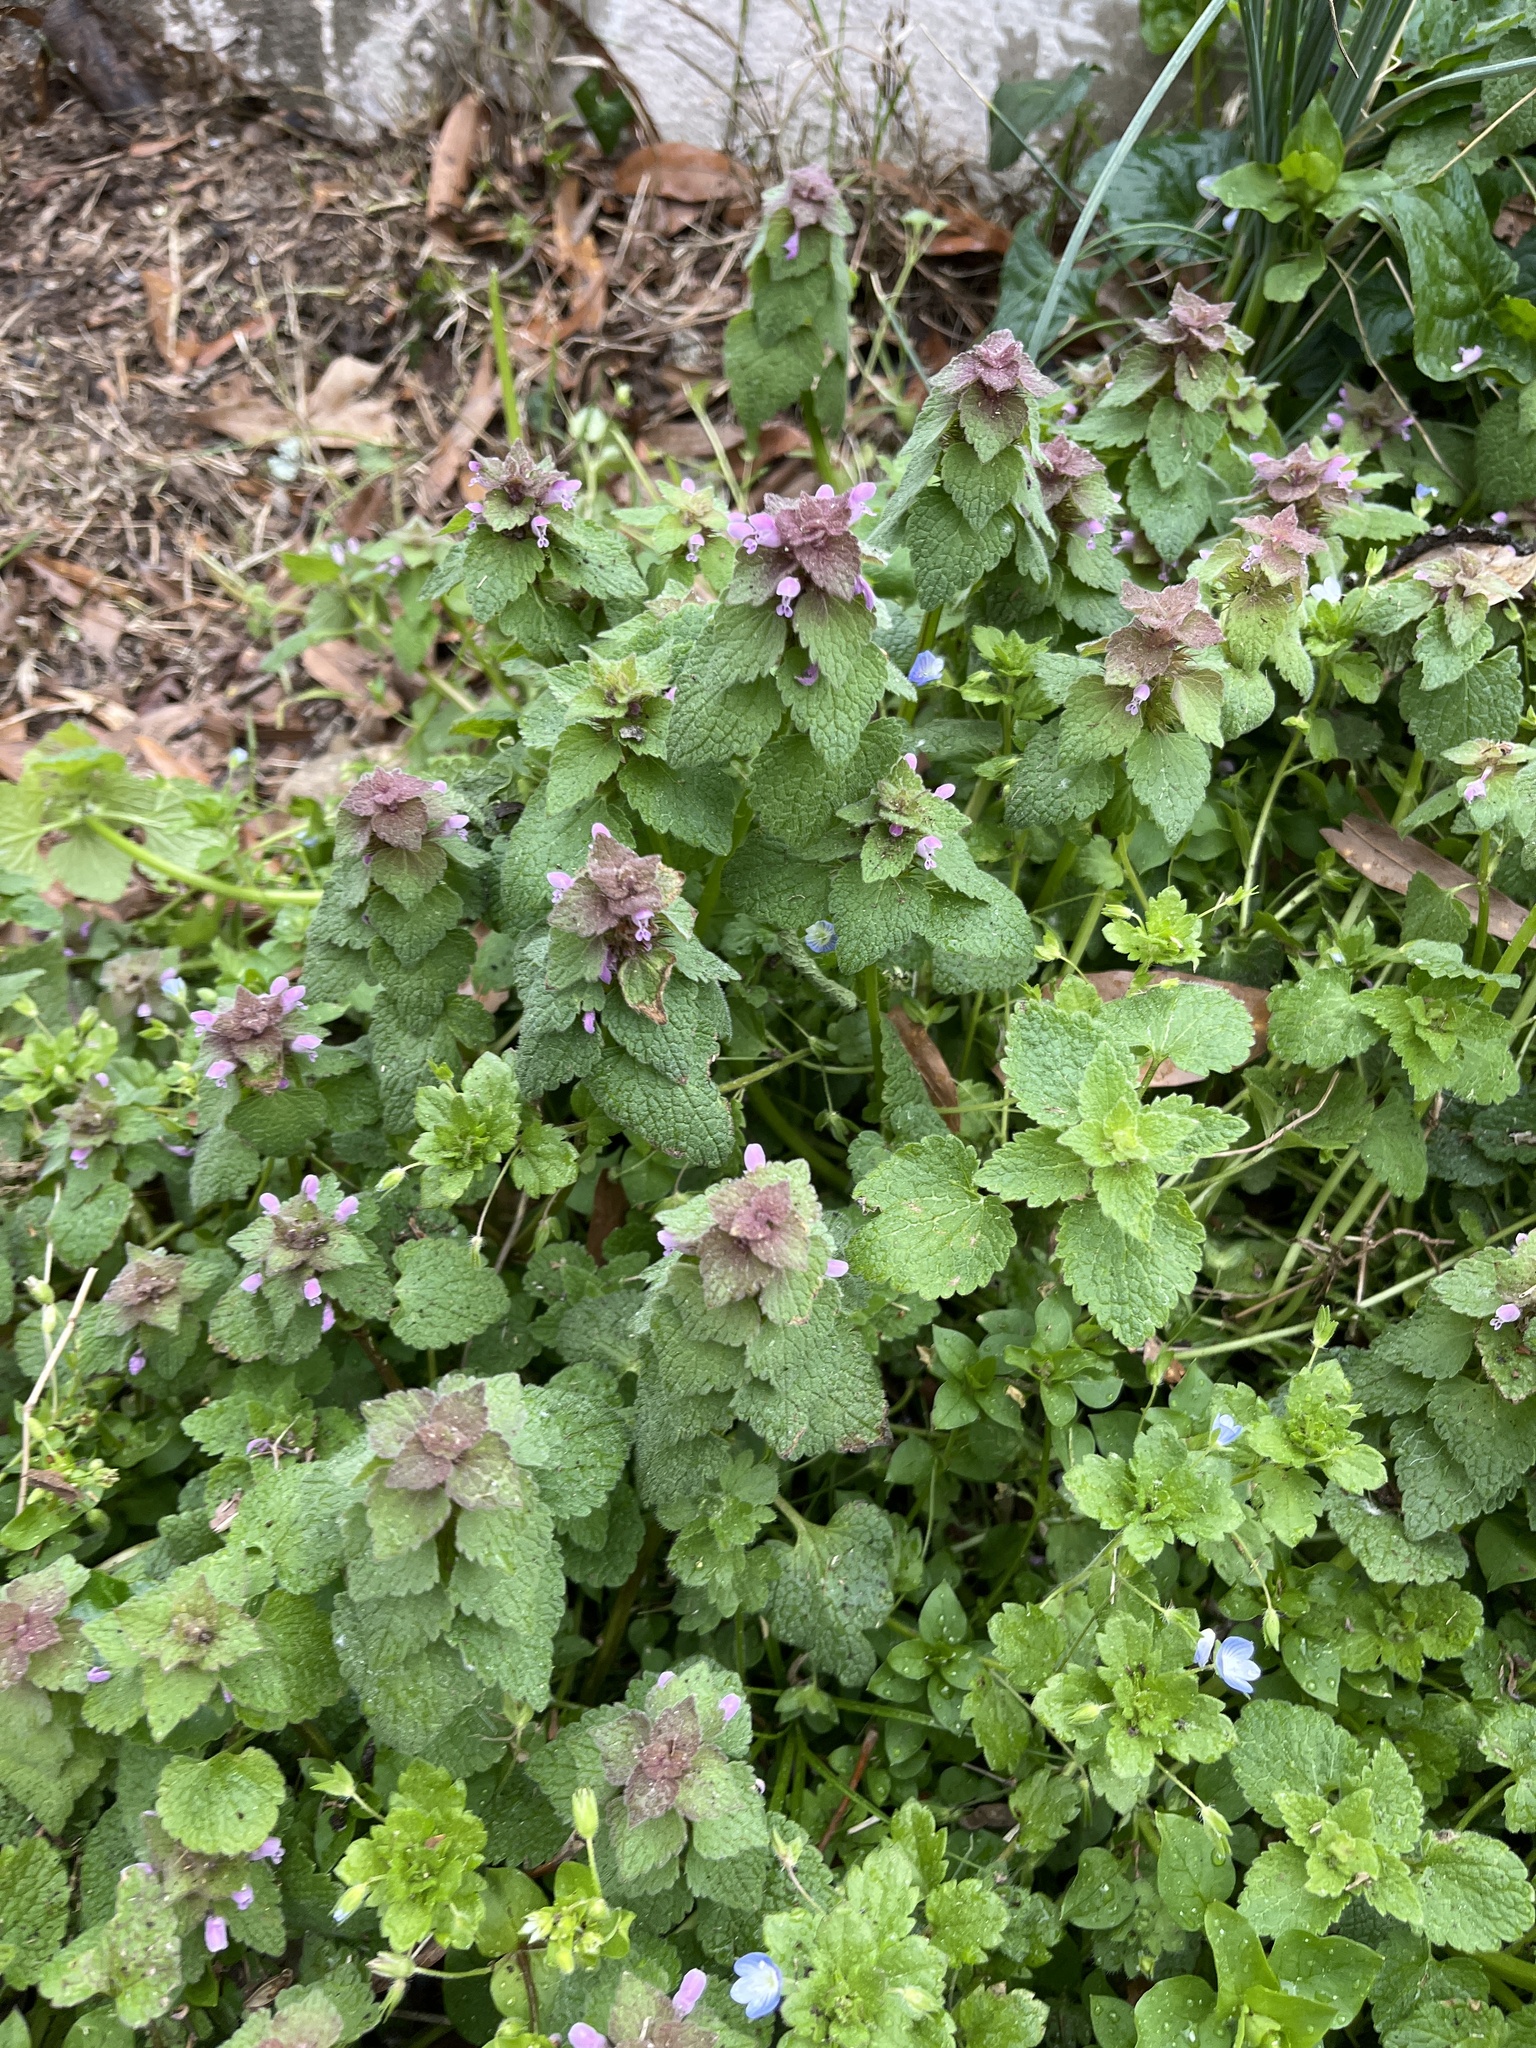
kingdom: Plantae
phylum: Tracheophyta
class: Magnoliopsida
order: Lamiales
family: Lamiaceae
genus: Lamium
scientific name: Lamium purpureum
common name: Red dead-nettle
